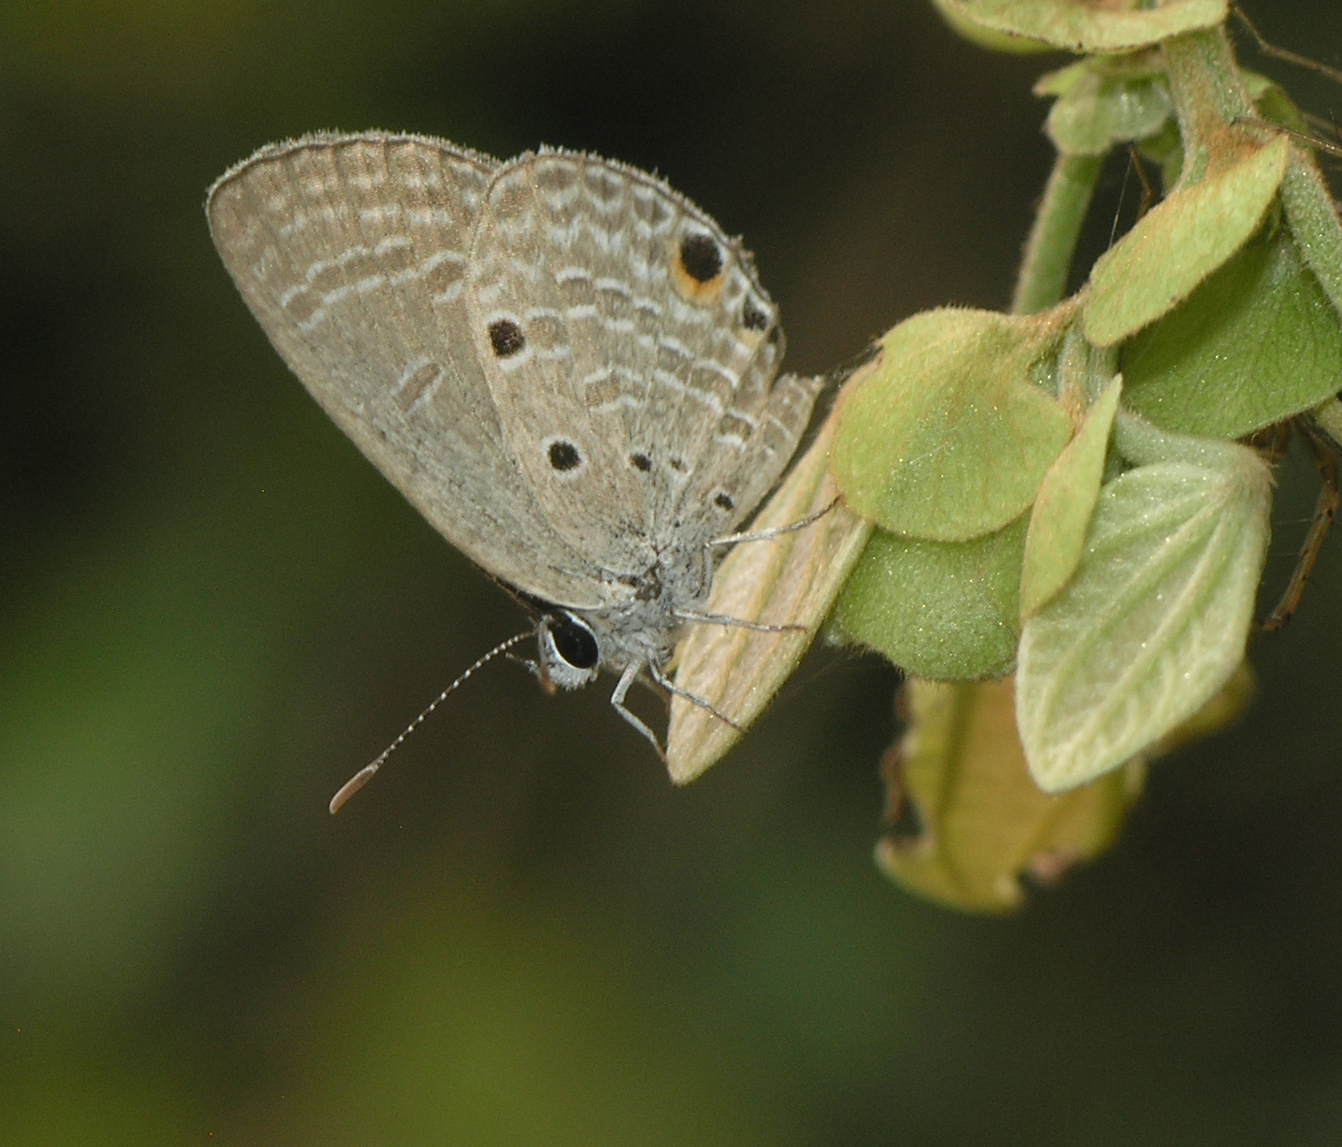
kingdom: Animalia
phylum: Arthropoda
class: Insecta
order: Lepidoptera
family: Lycaenidae
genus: Luthrodes
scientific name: Luthrodes pandava
